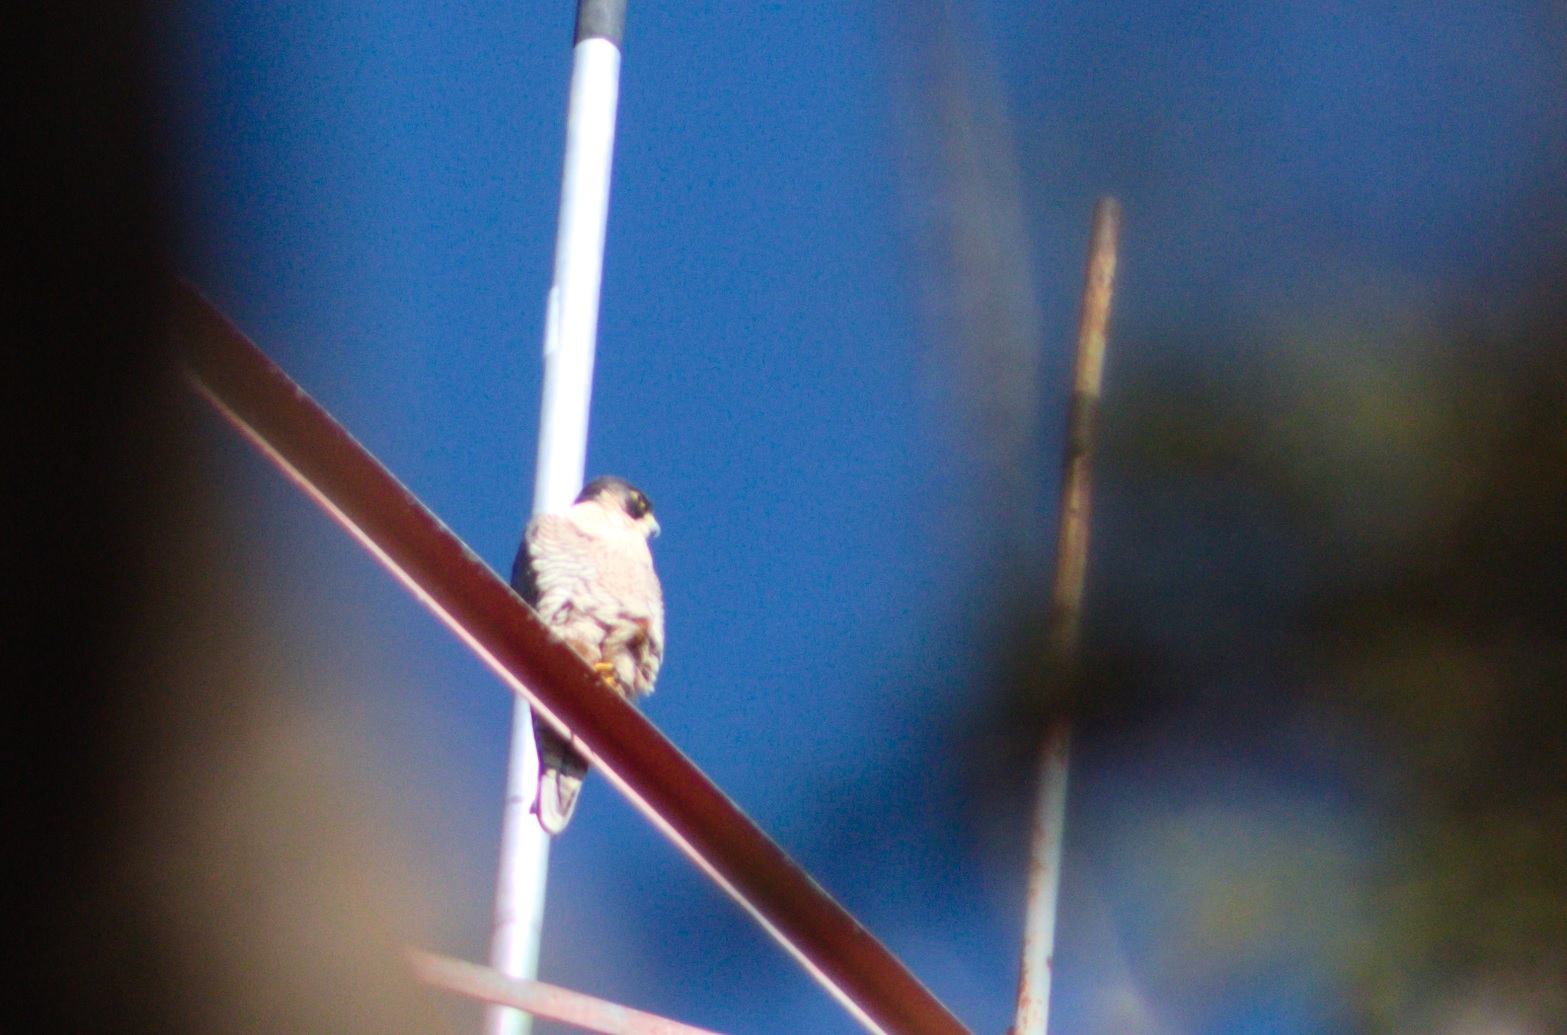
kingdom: Animalia
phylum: Chordata
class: Aves
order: Falconiformes
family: Falconidae
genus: Falco
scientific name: Falco peregrinus
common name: Peregrine falcon
